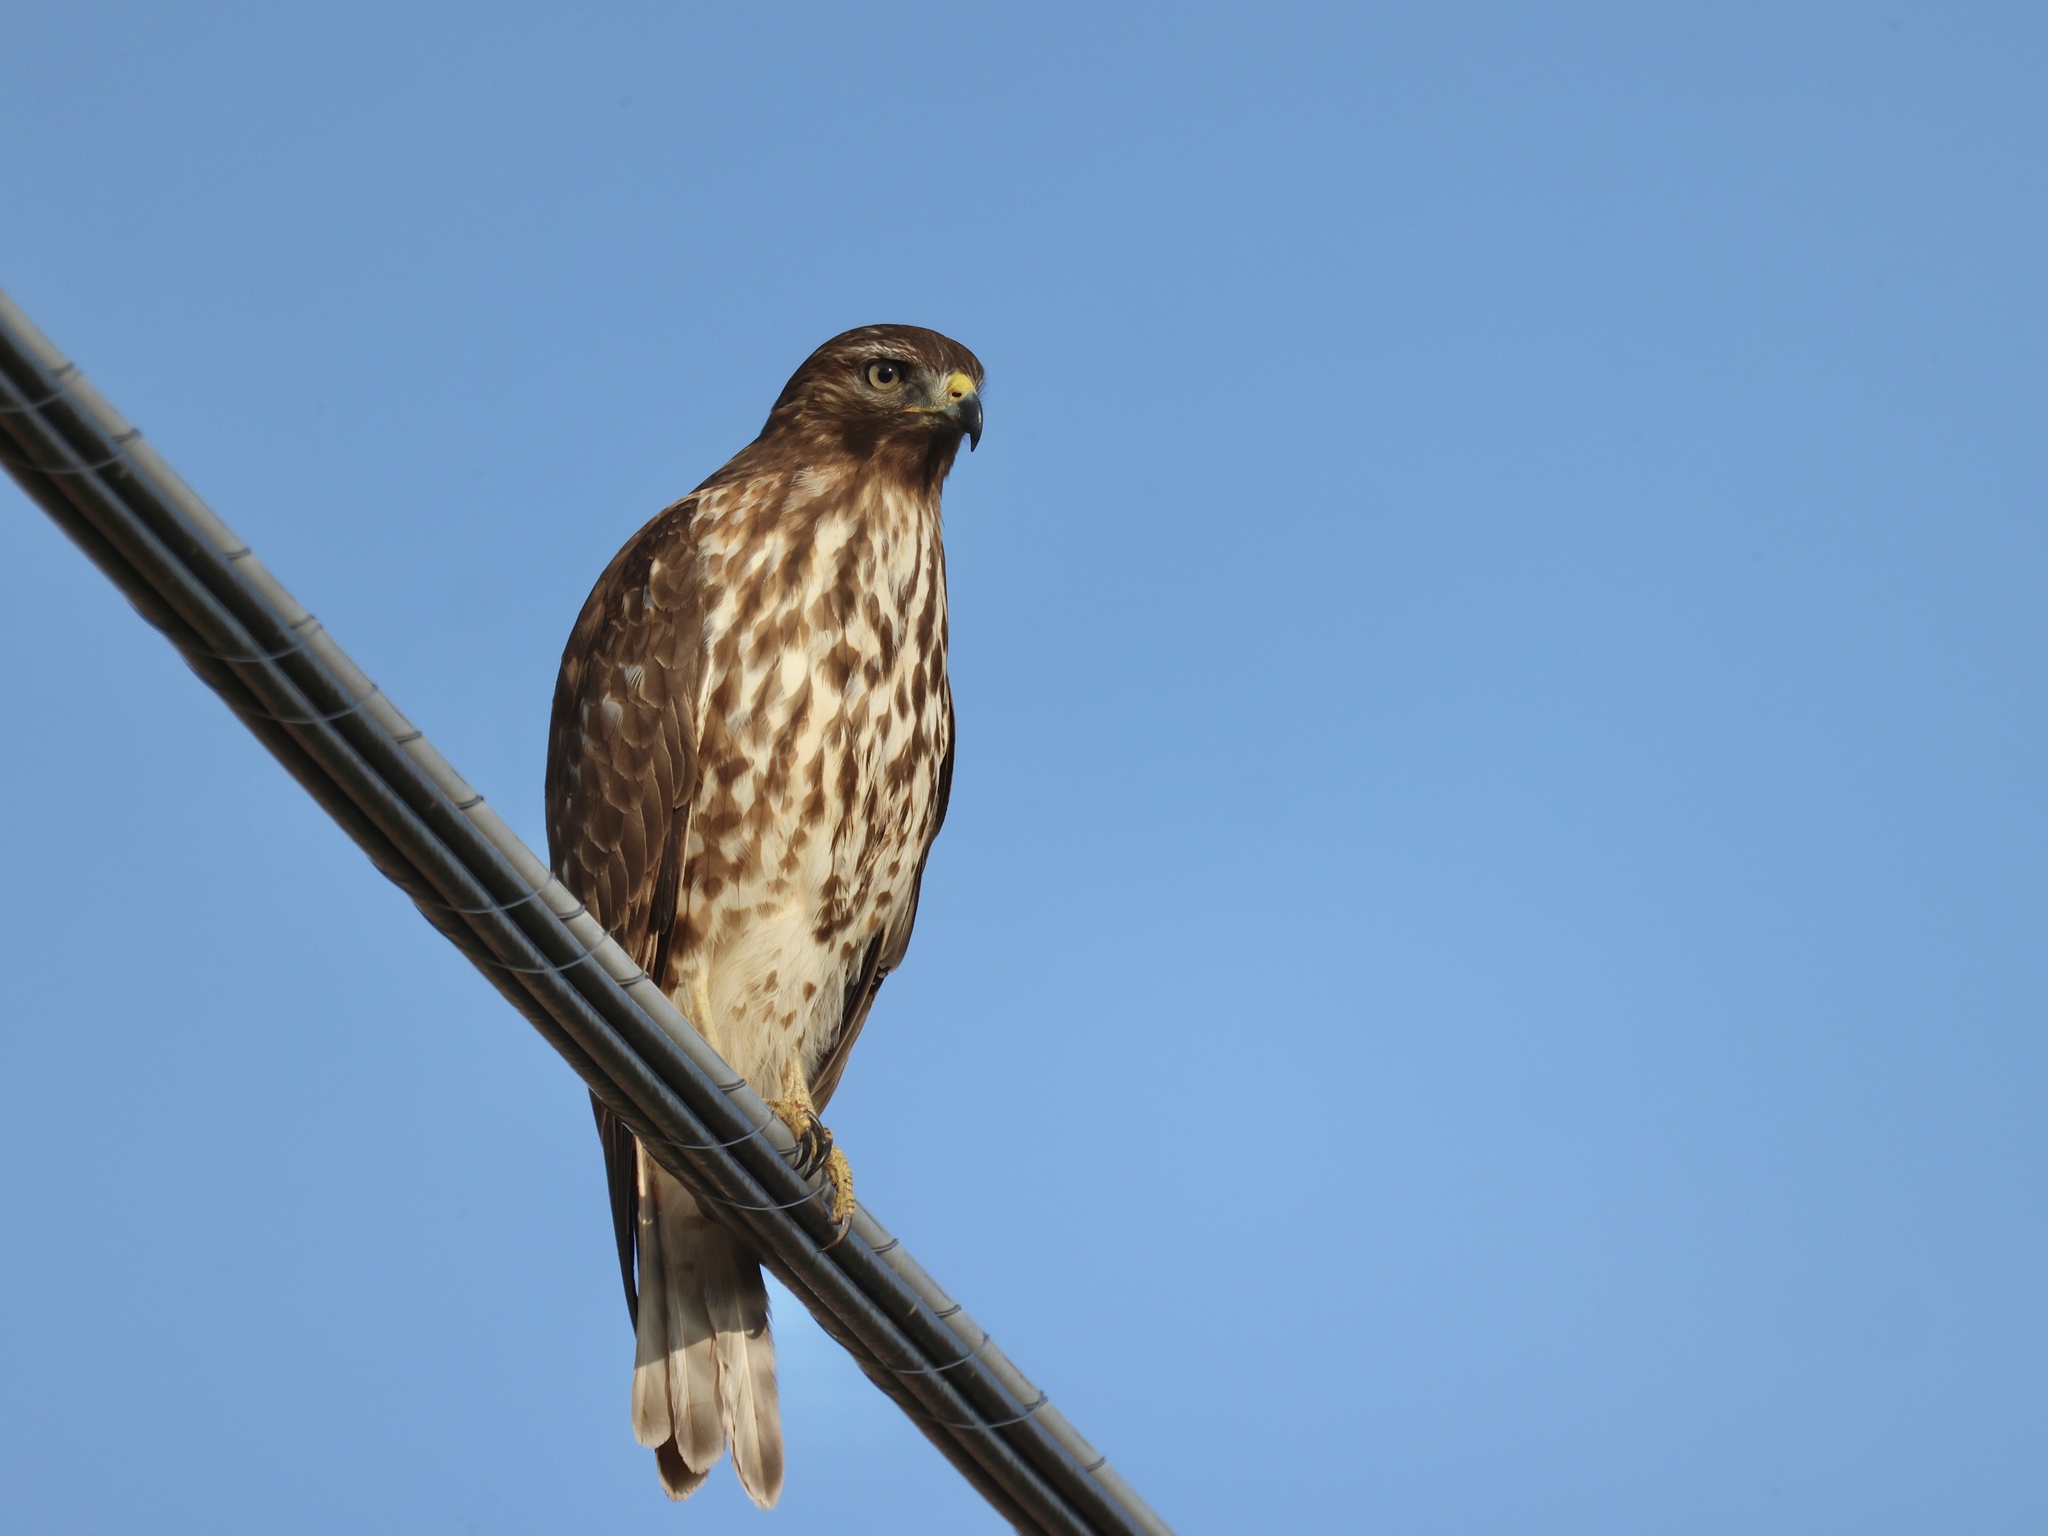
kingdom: Animalia
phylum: Chordata
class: Aves
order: Accipitriformes
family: Accipitridae
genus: Buteo
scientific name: Buteo lineatus
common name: Red-shouldered hawk
